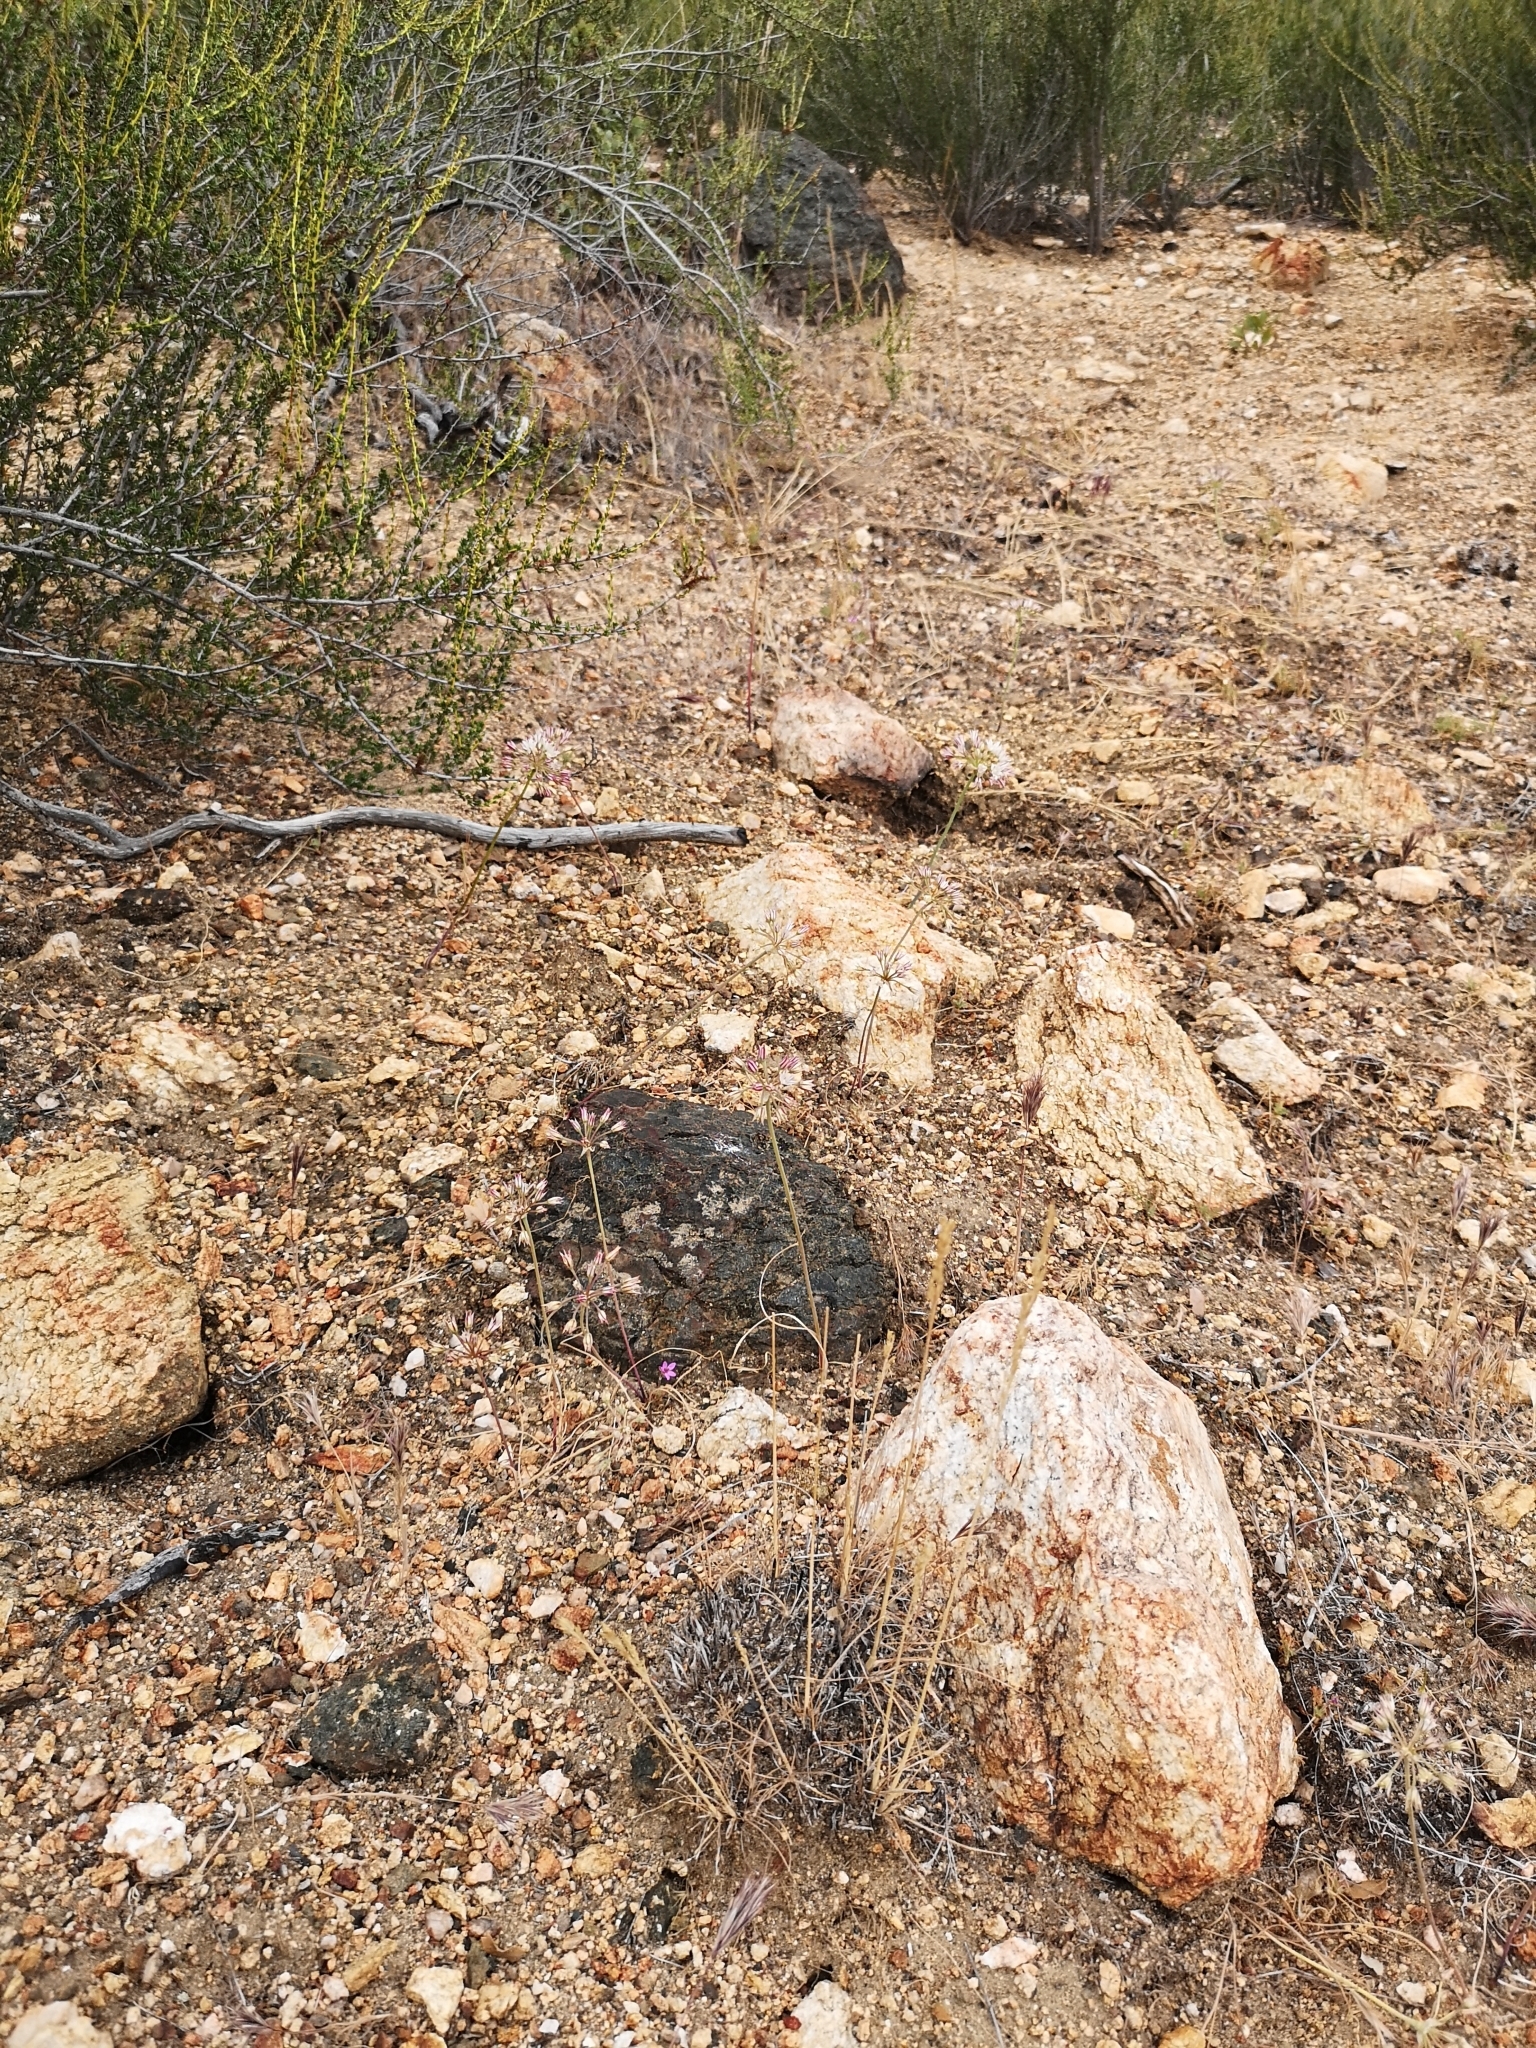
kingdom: Plantae
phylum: Tracheophyta
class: Liliopsida
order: Asparagales
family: Amaryllidaceae
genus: Allium
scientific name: Allium lacunosum
